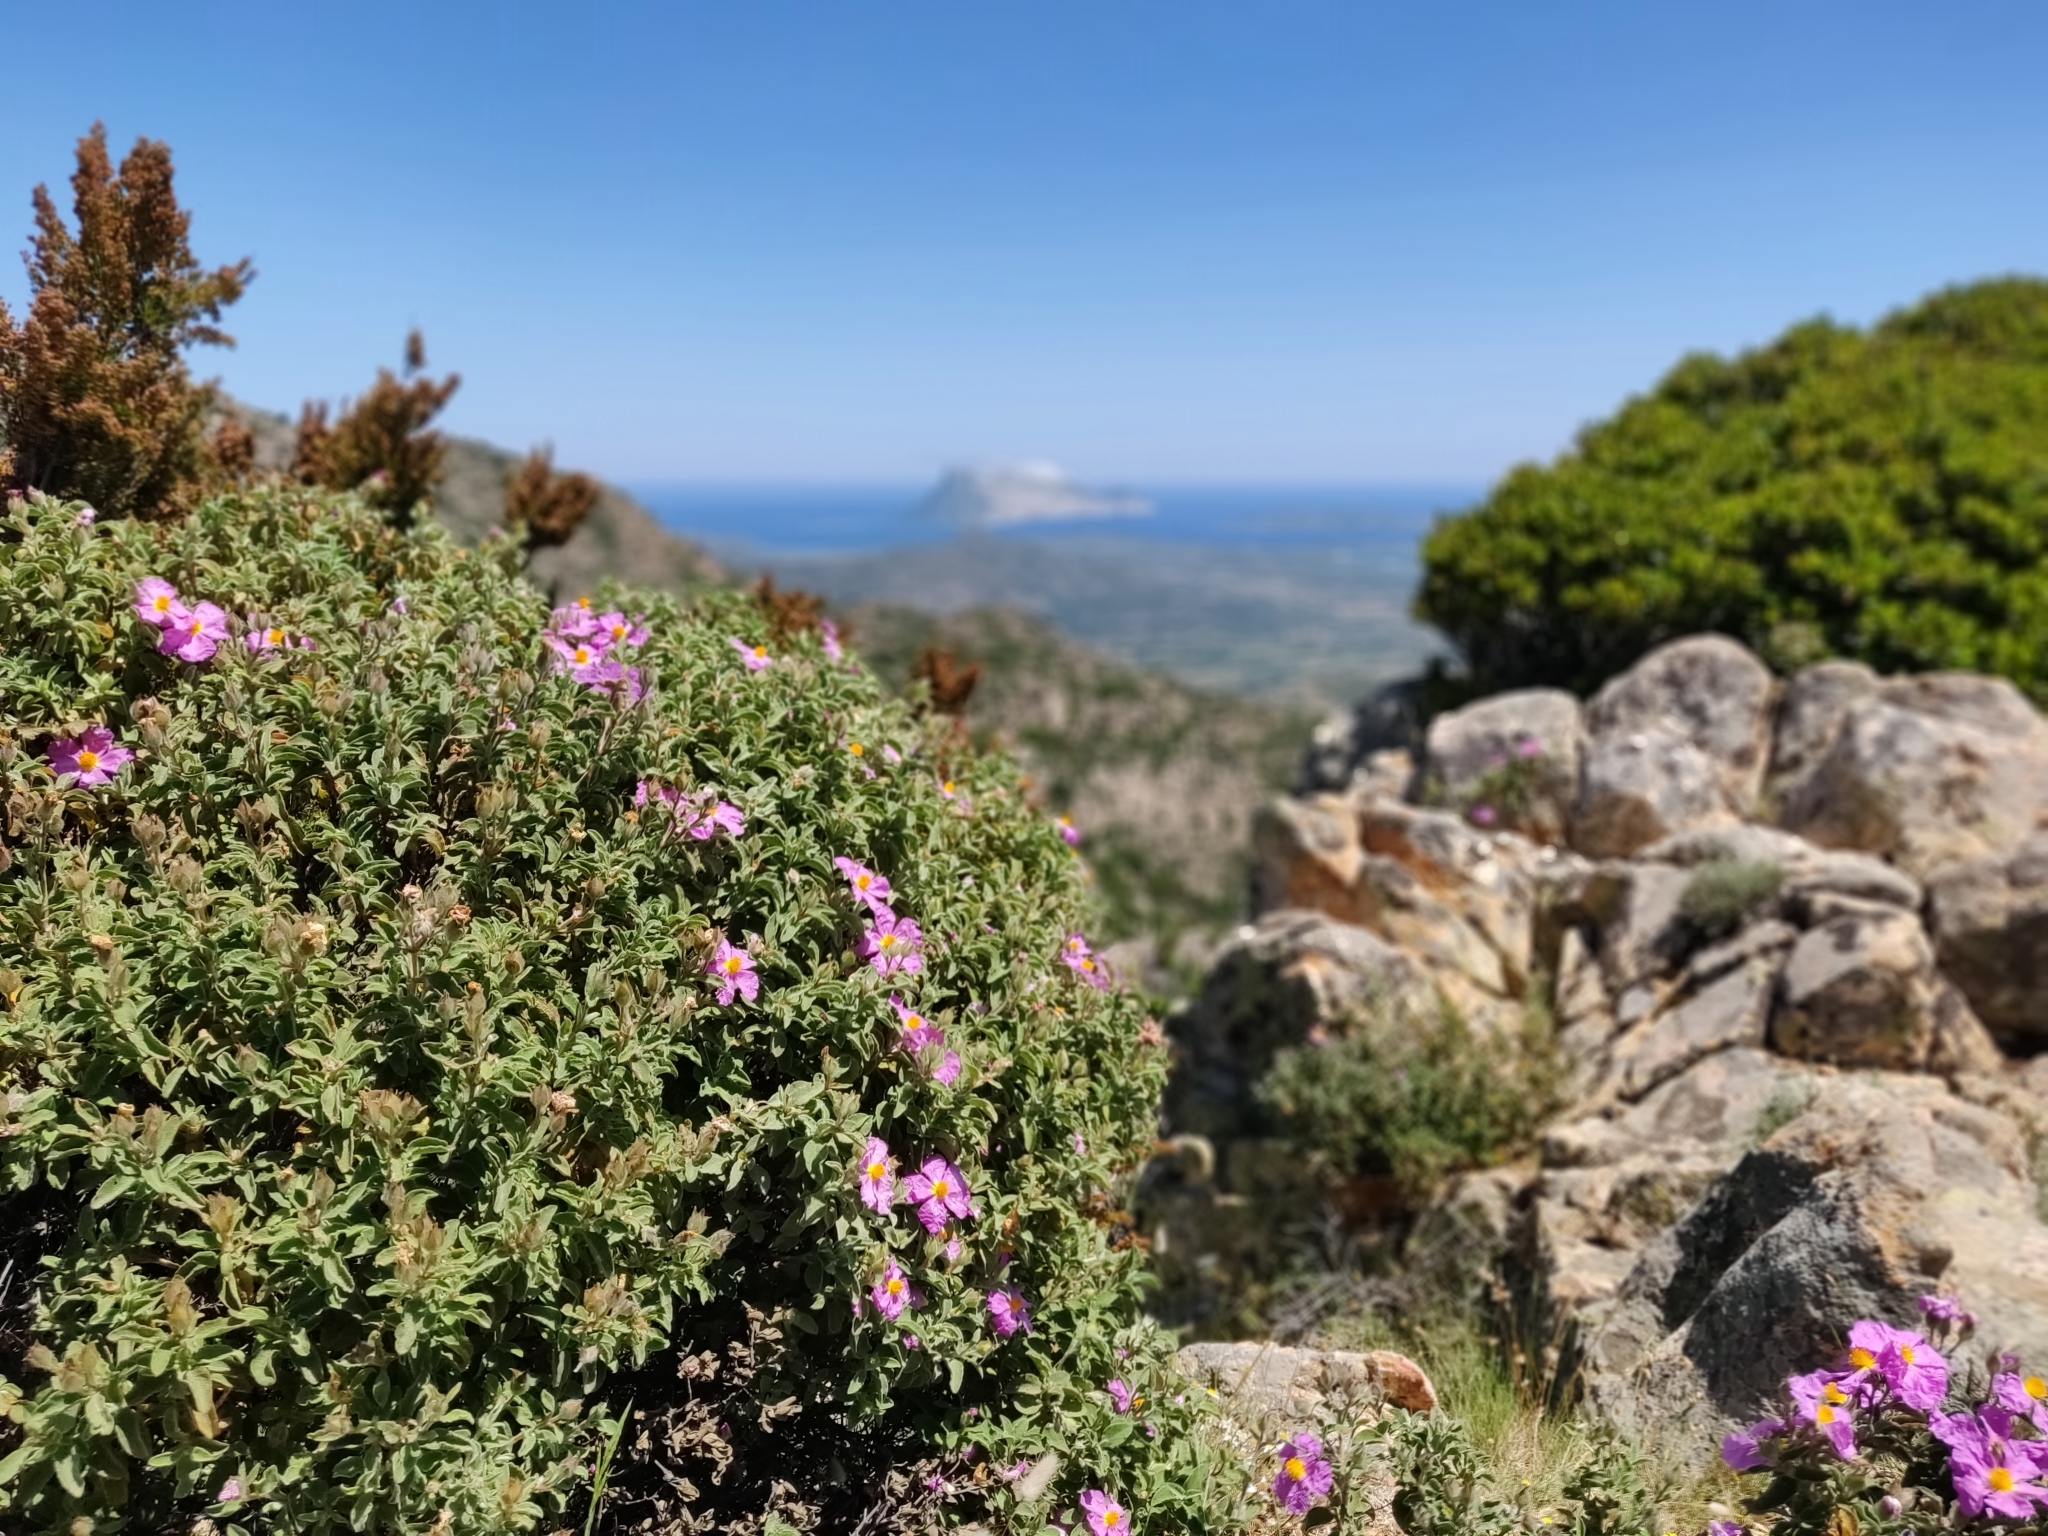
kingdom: Plantae
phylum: Tracheophyta
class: Magnoliopsida
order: Malvales
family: Cistaceae
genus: Cistus
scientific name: Cistus creticus
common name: Cretan rockrose
